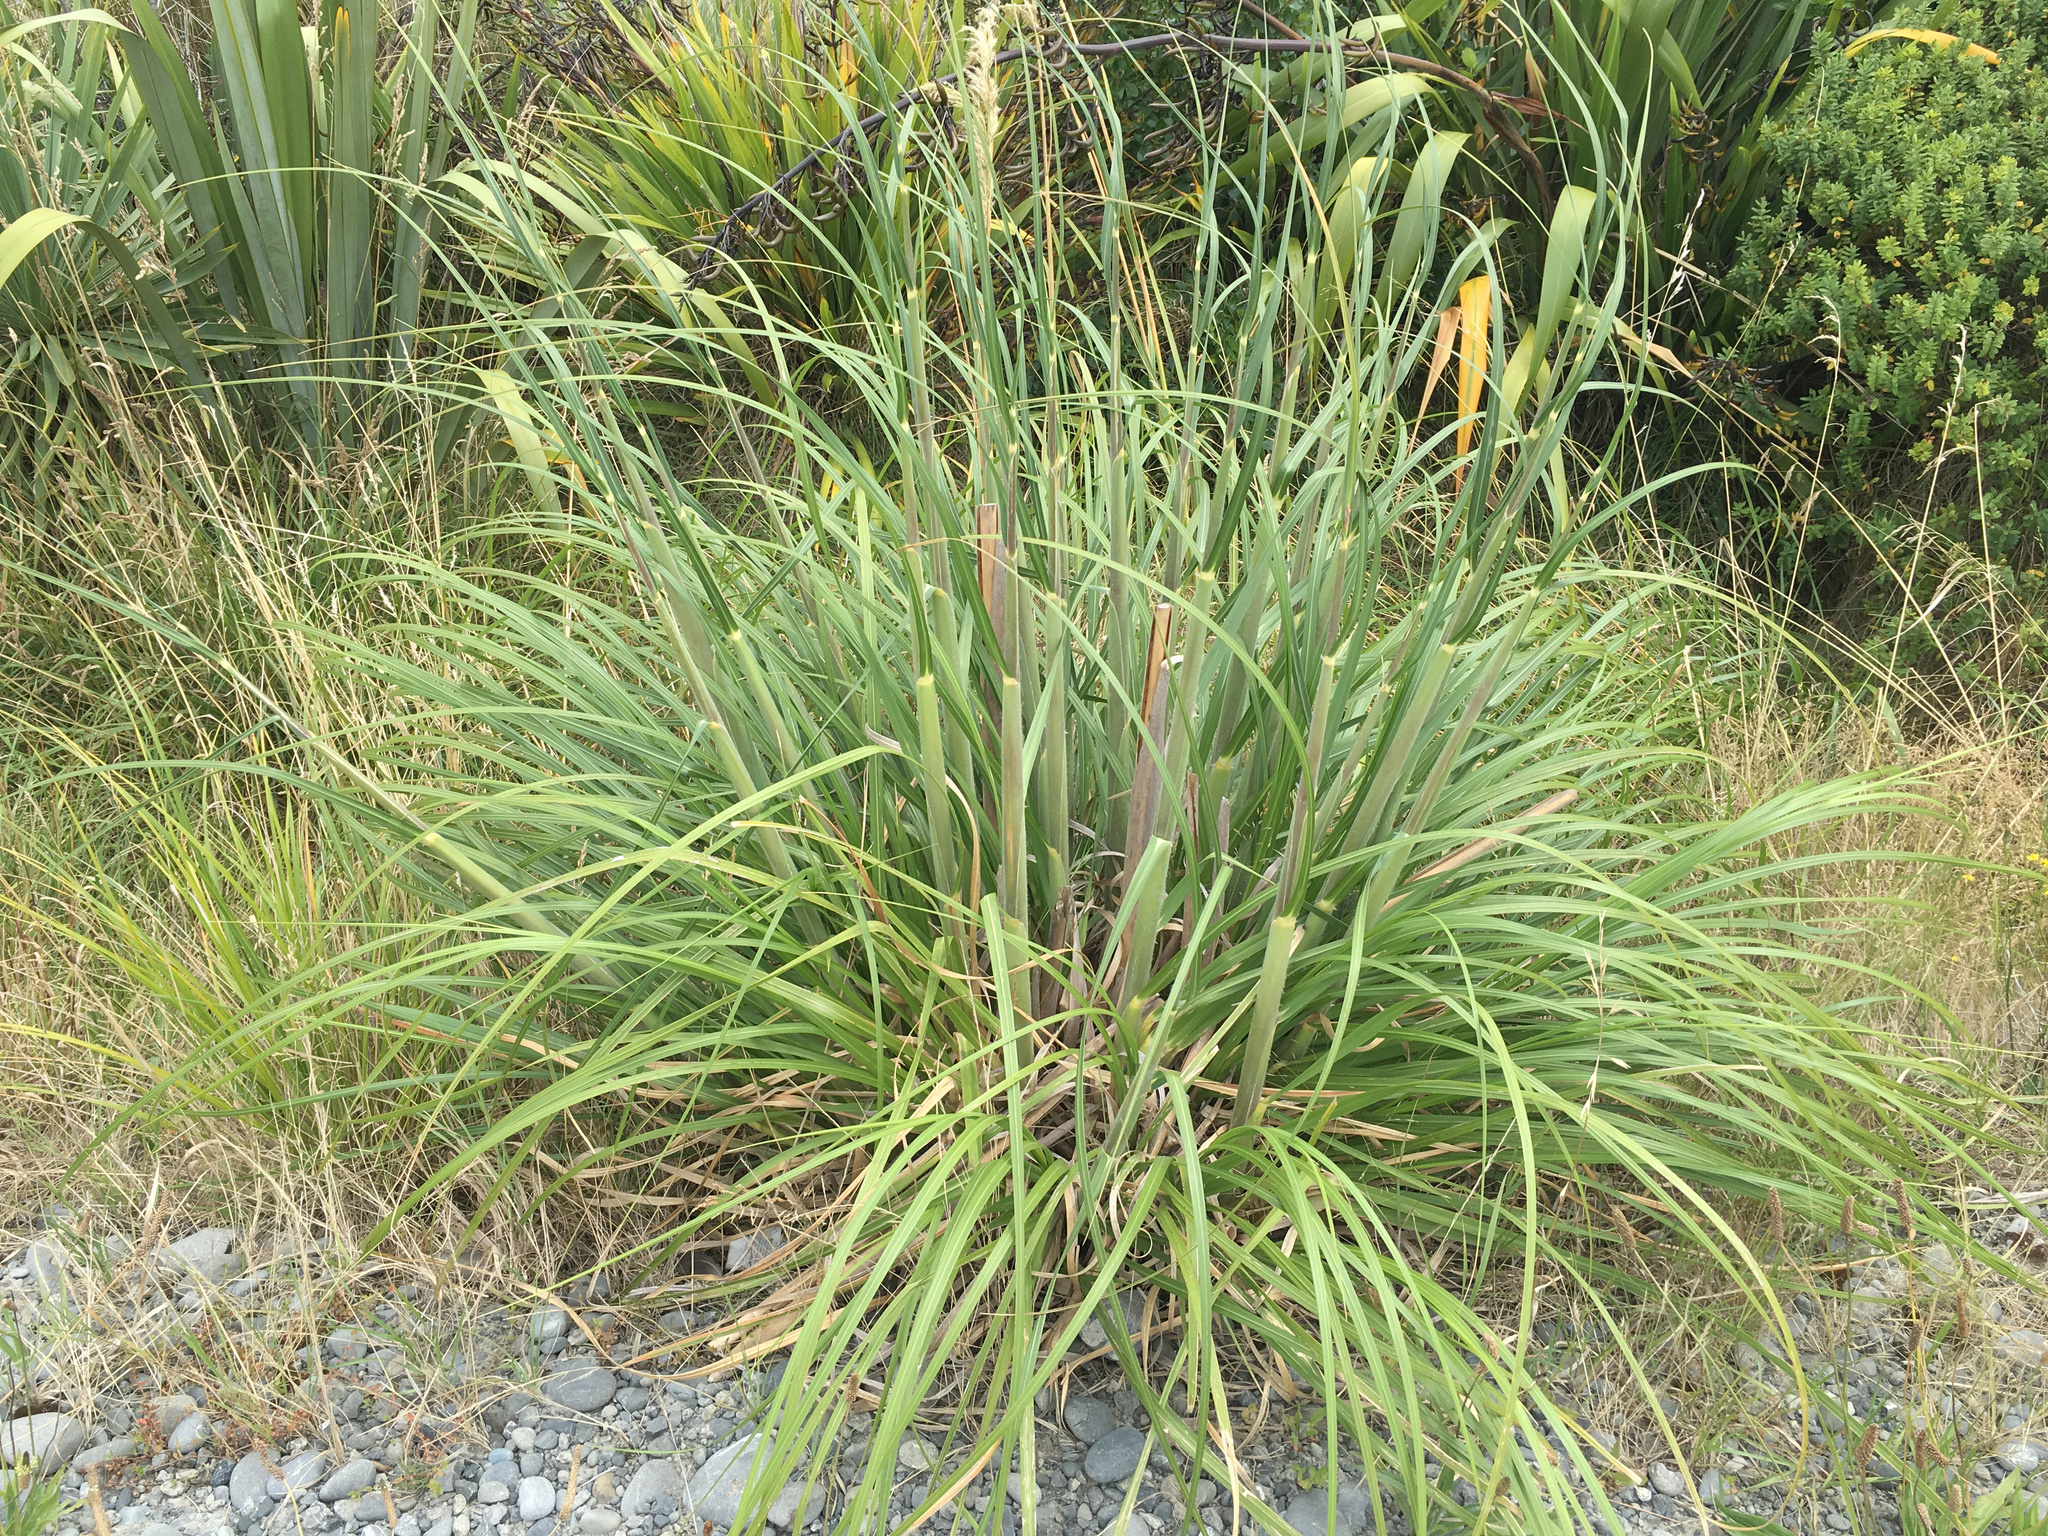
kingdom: Plantae
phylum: Tracheophyta
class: Liliopsida
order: Poales
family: Poaceae
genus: Cortaderia
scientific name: Cortaderia jubata
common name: Purple pampas grass
